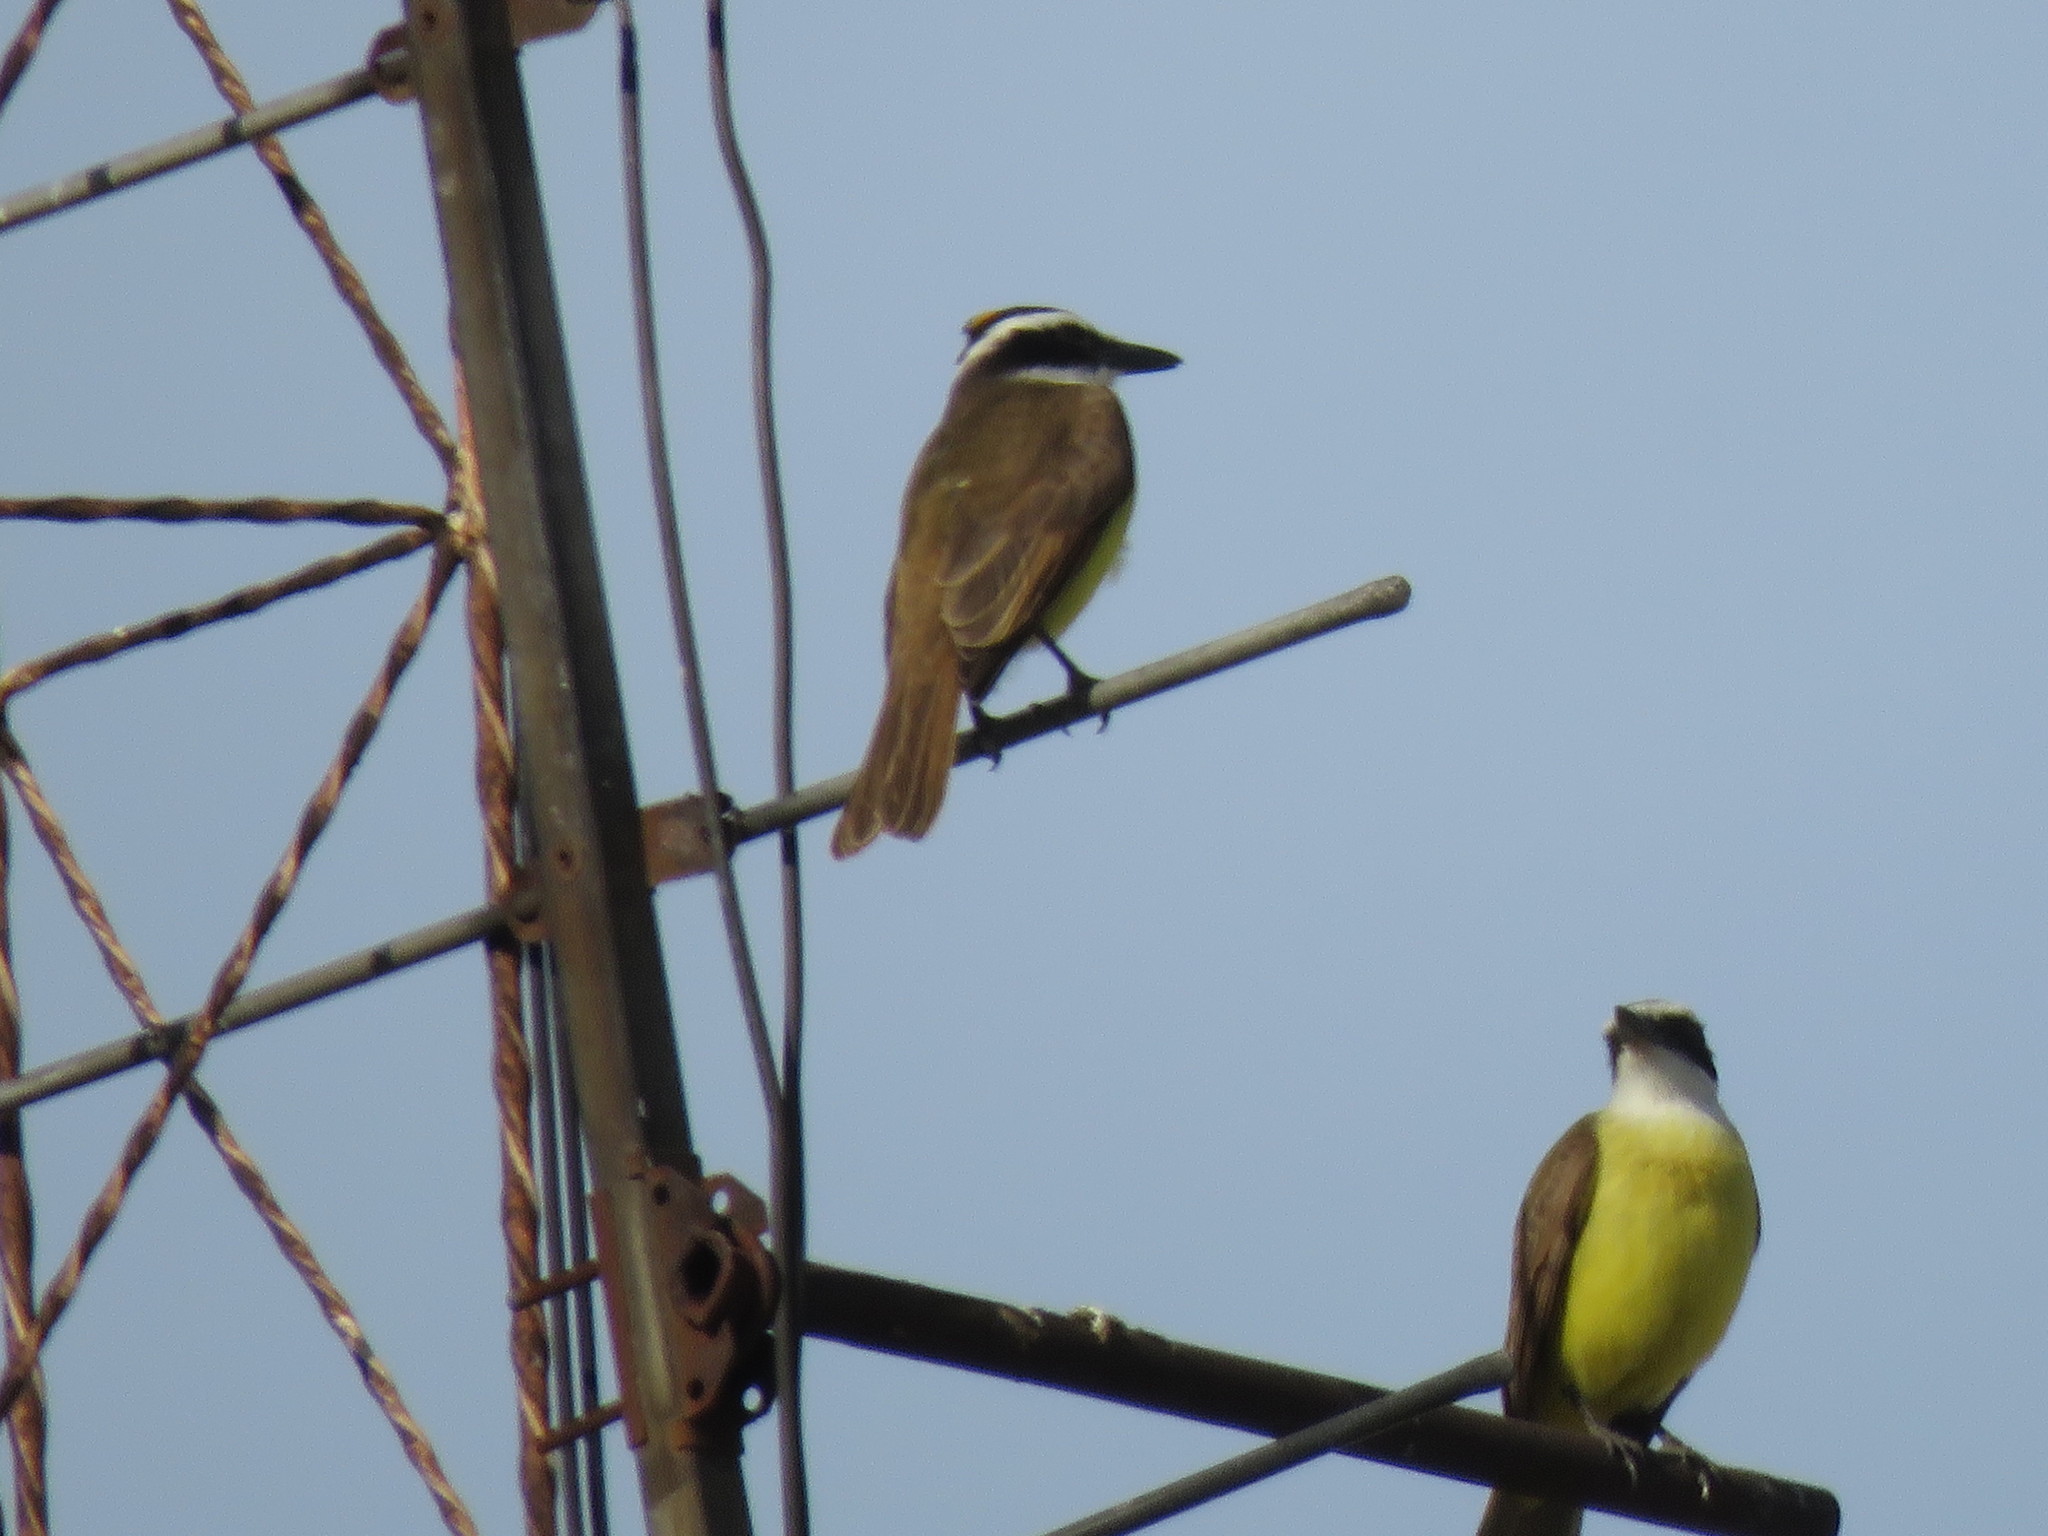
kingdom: Animalia
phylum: Chordata
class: Aves
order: Passeriformes
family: Tyrannidae
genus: Pitangus
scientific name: Pitangus sulphuratus
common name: Great kiskadee
